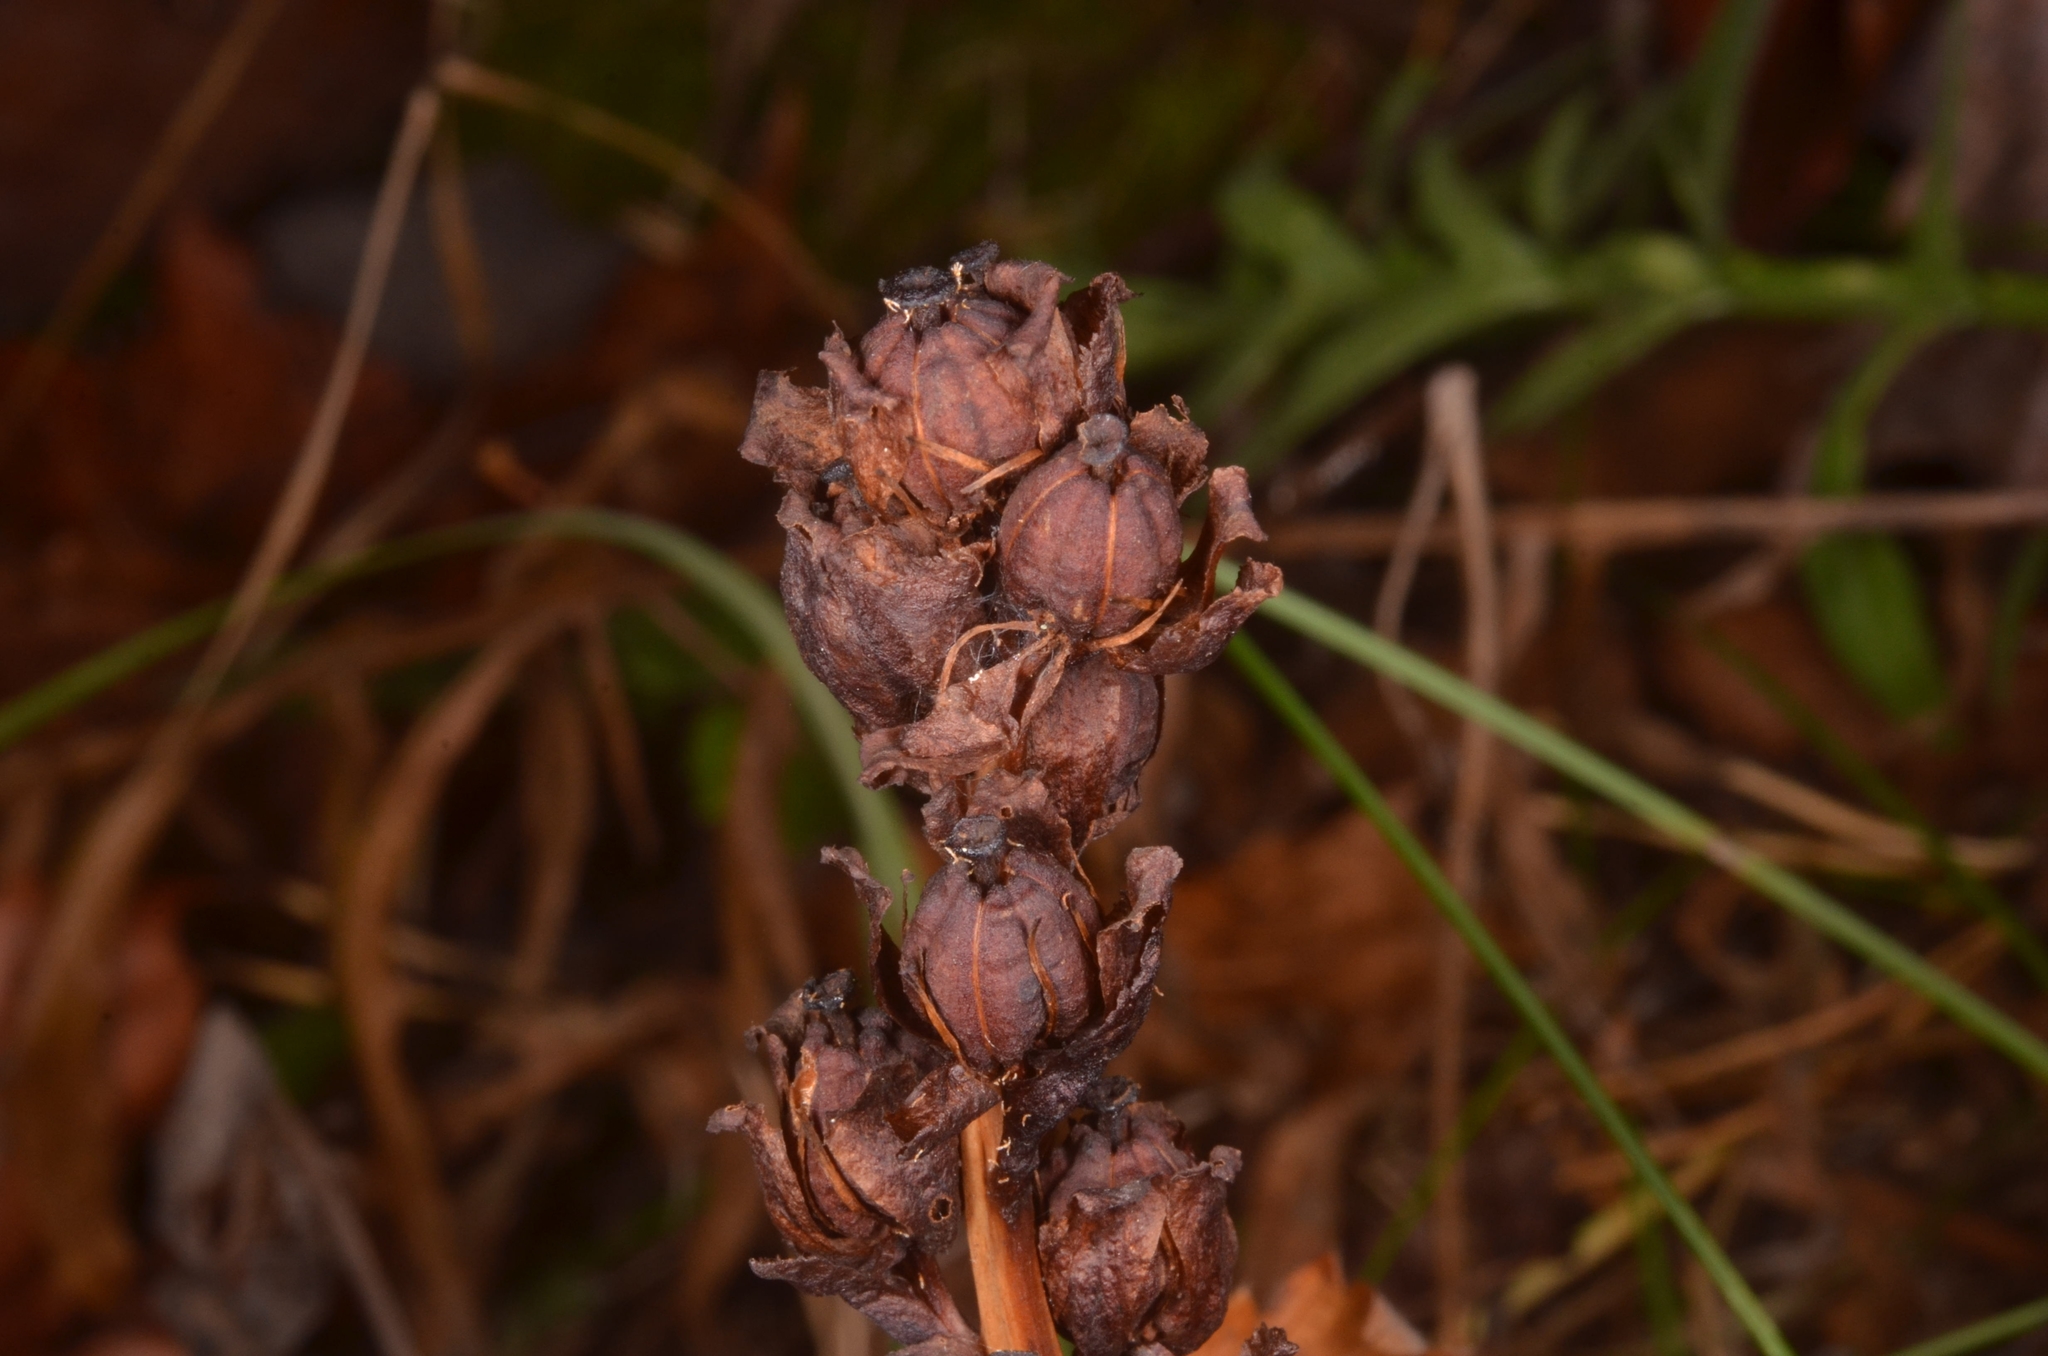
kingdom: Plantae
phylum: Tracheophyta
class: Magnoliopsida
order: Ericales
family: Ericaceae
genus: Hypopitys
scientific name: Hypopitys monotropa
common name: Yellow bird's-nest
